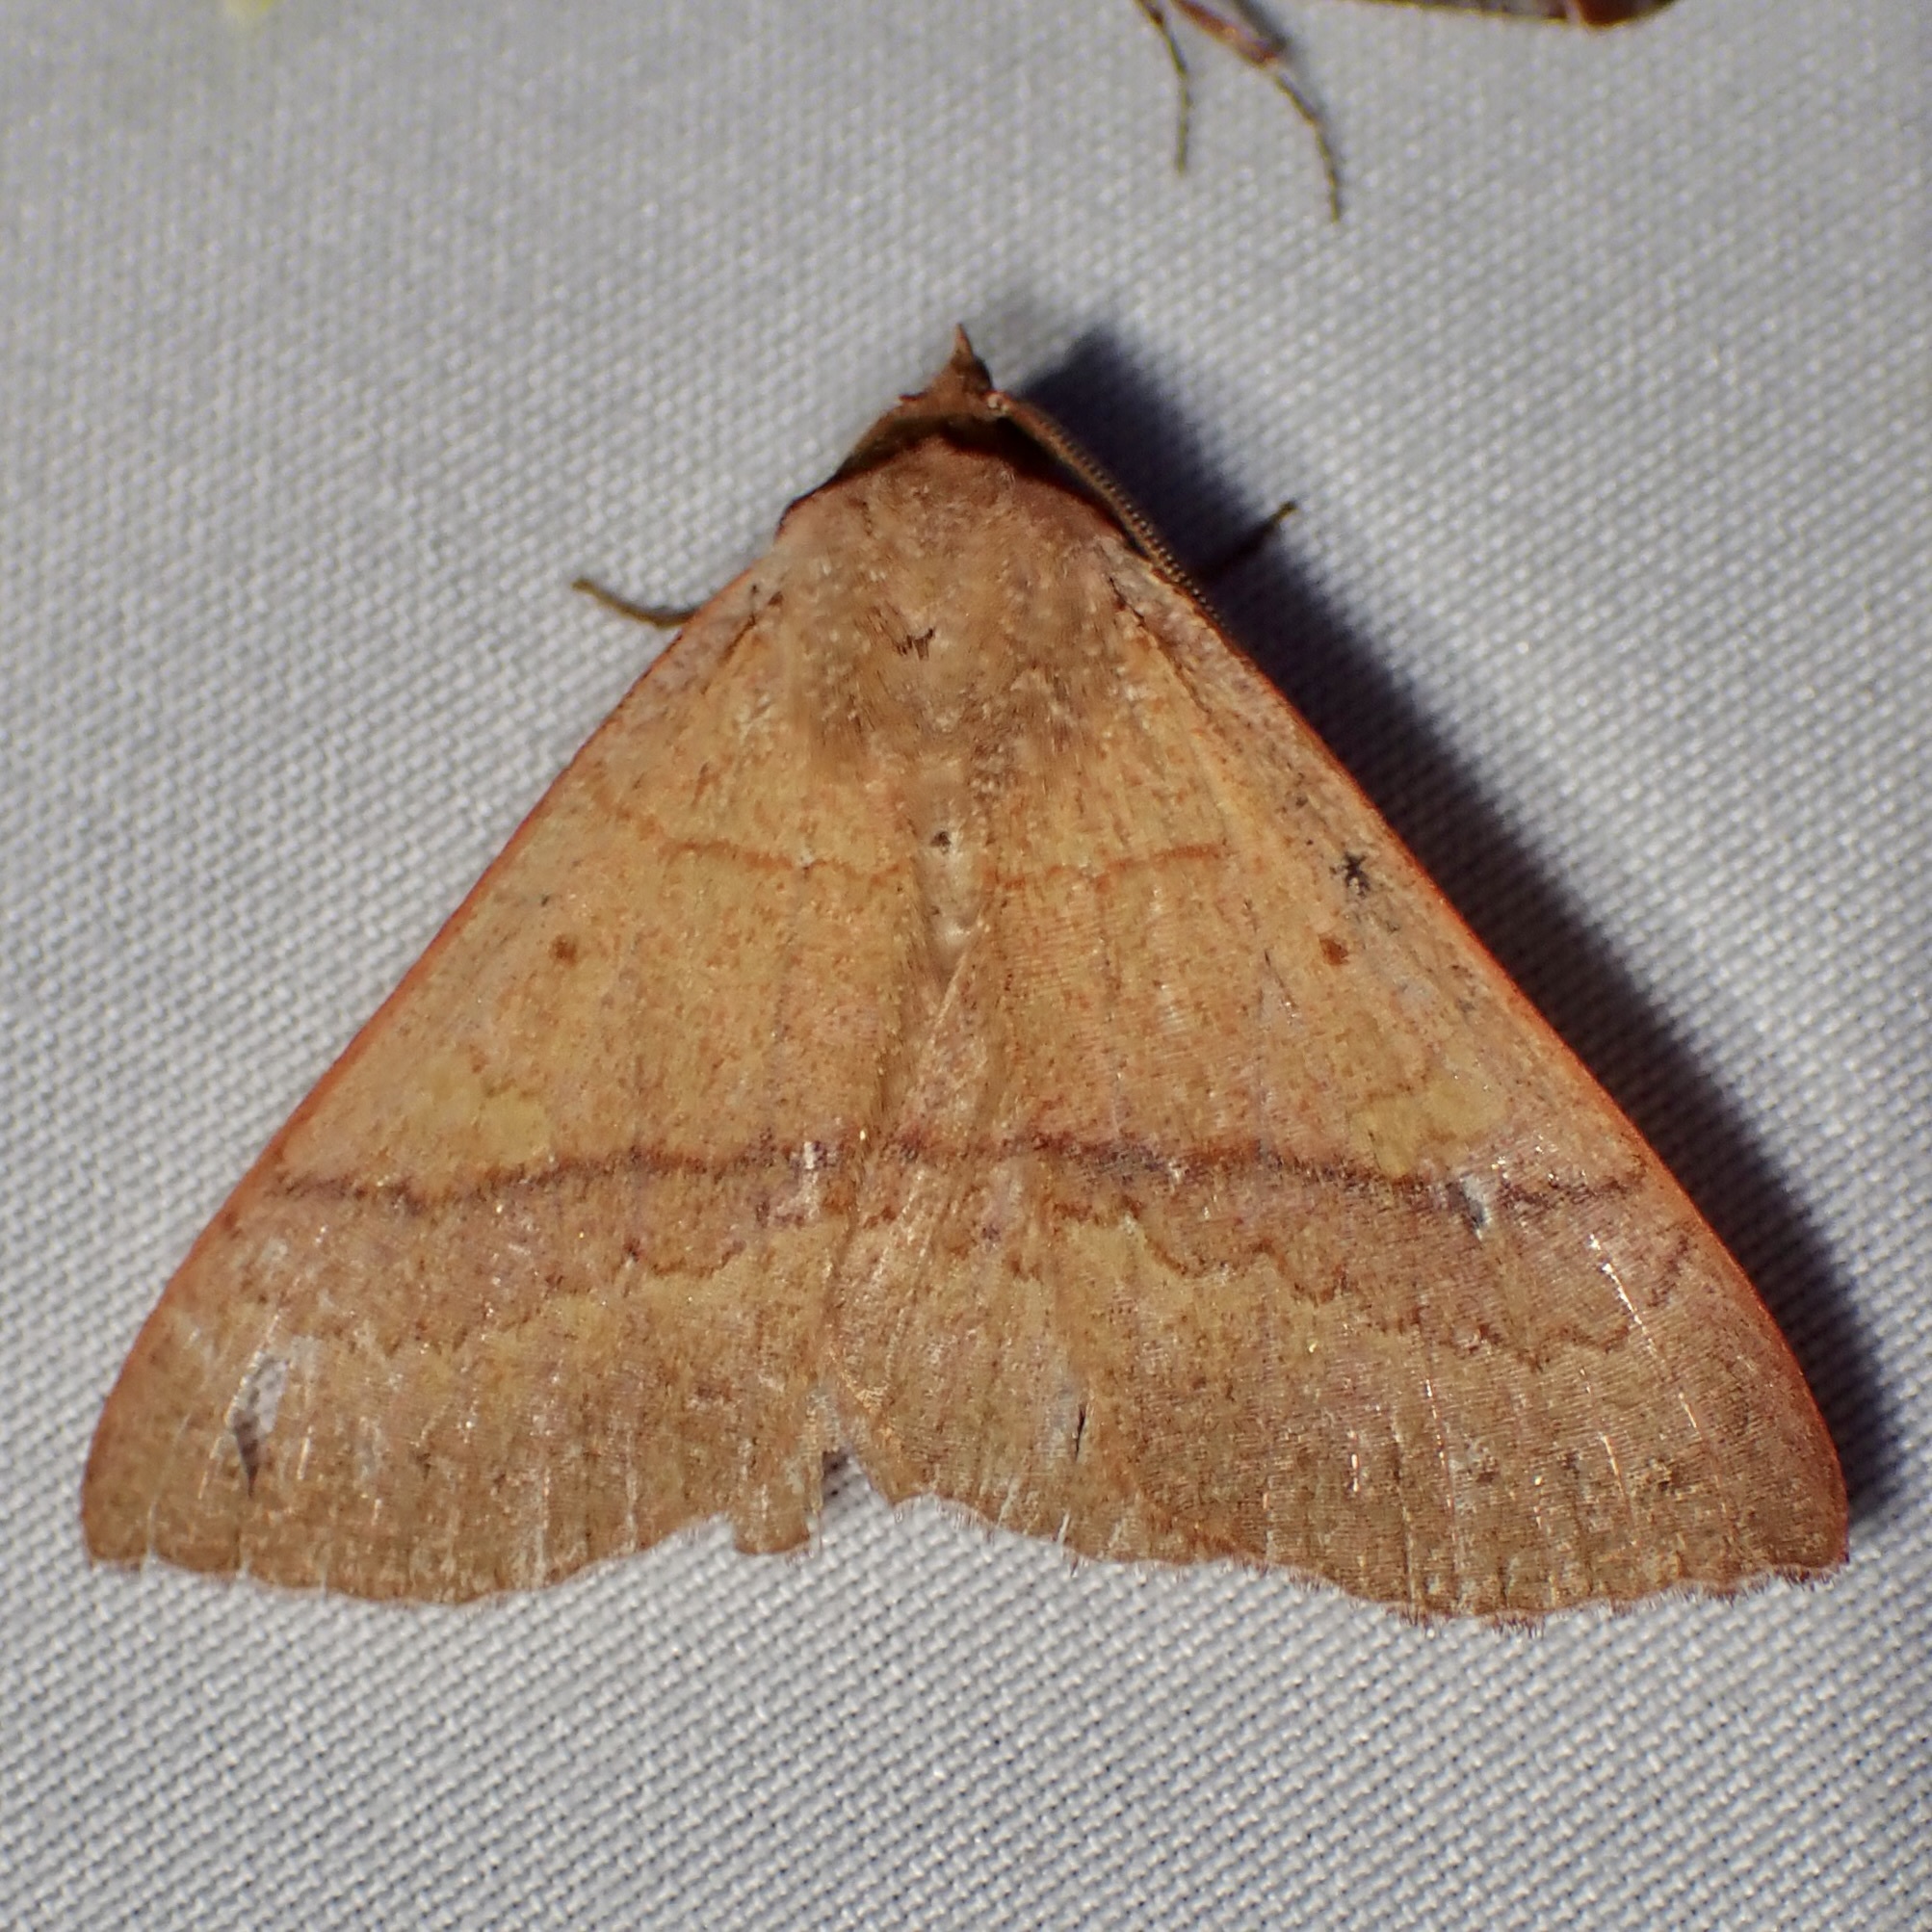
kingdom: Animalia
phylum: Arthropoda
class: Insecta
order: Lepidoptera
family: Erebidae
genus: Panopoda
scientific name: Panopoda rigida
